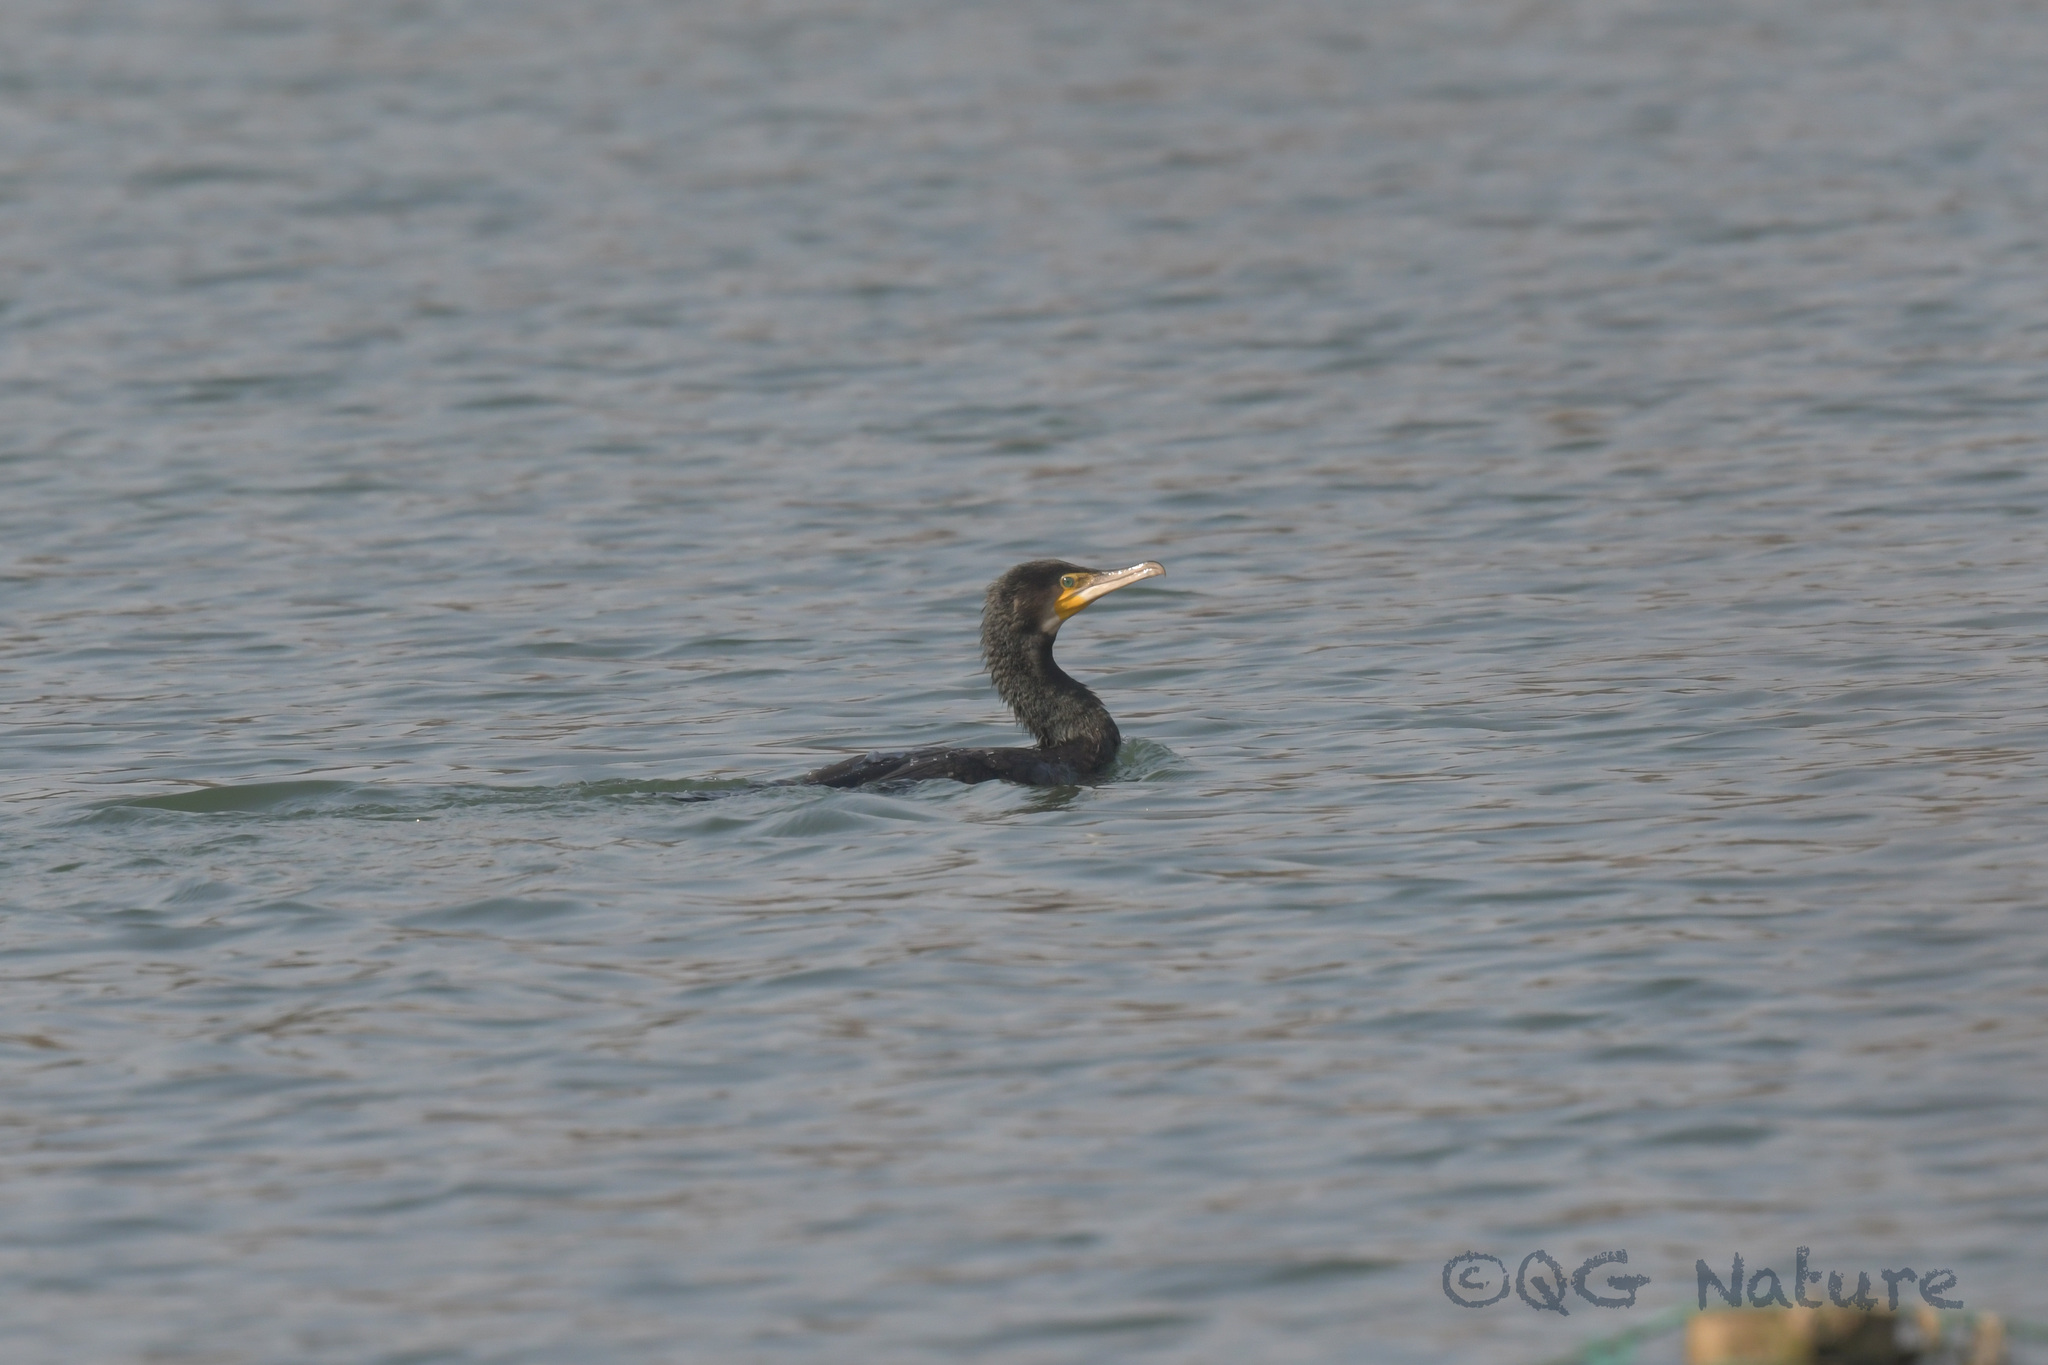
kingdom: Animalia
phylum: Chordata
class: Aves
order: Suliformes
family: Phalacrocoracidae
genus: Phalacrocorax
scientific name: Phalacrocorax carbo
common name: Great cormorant
